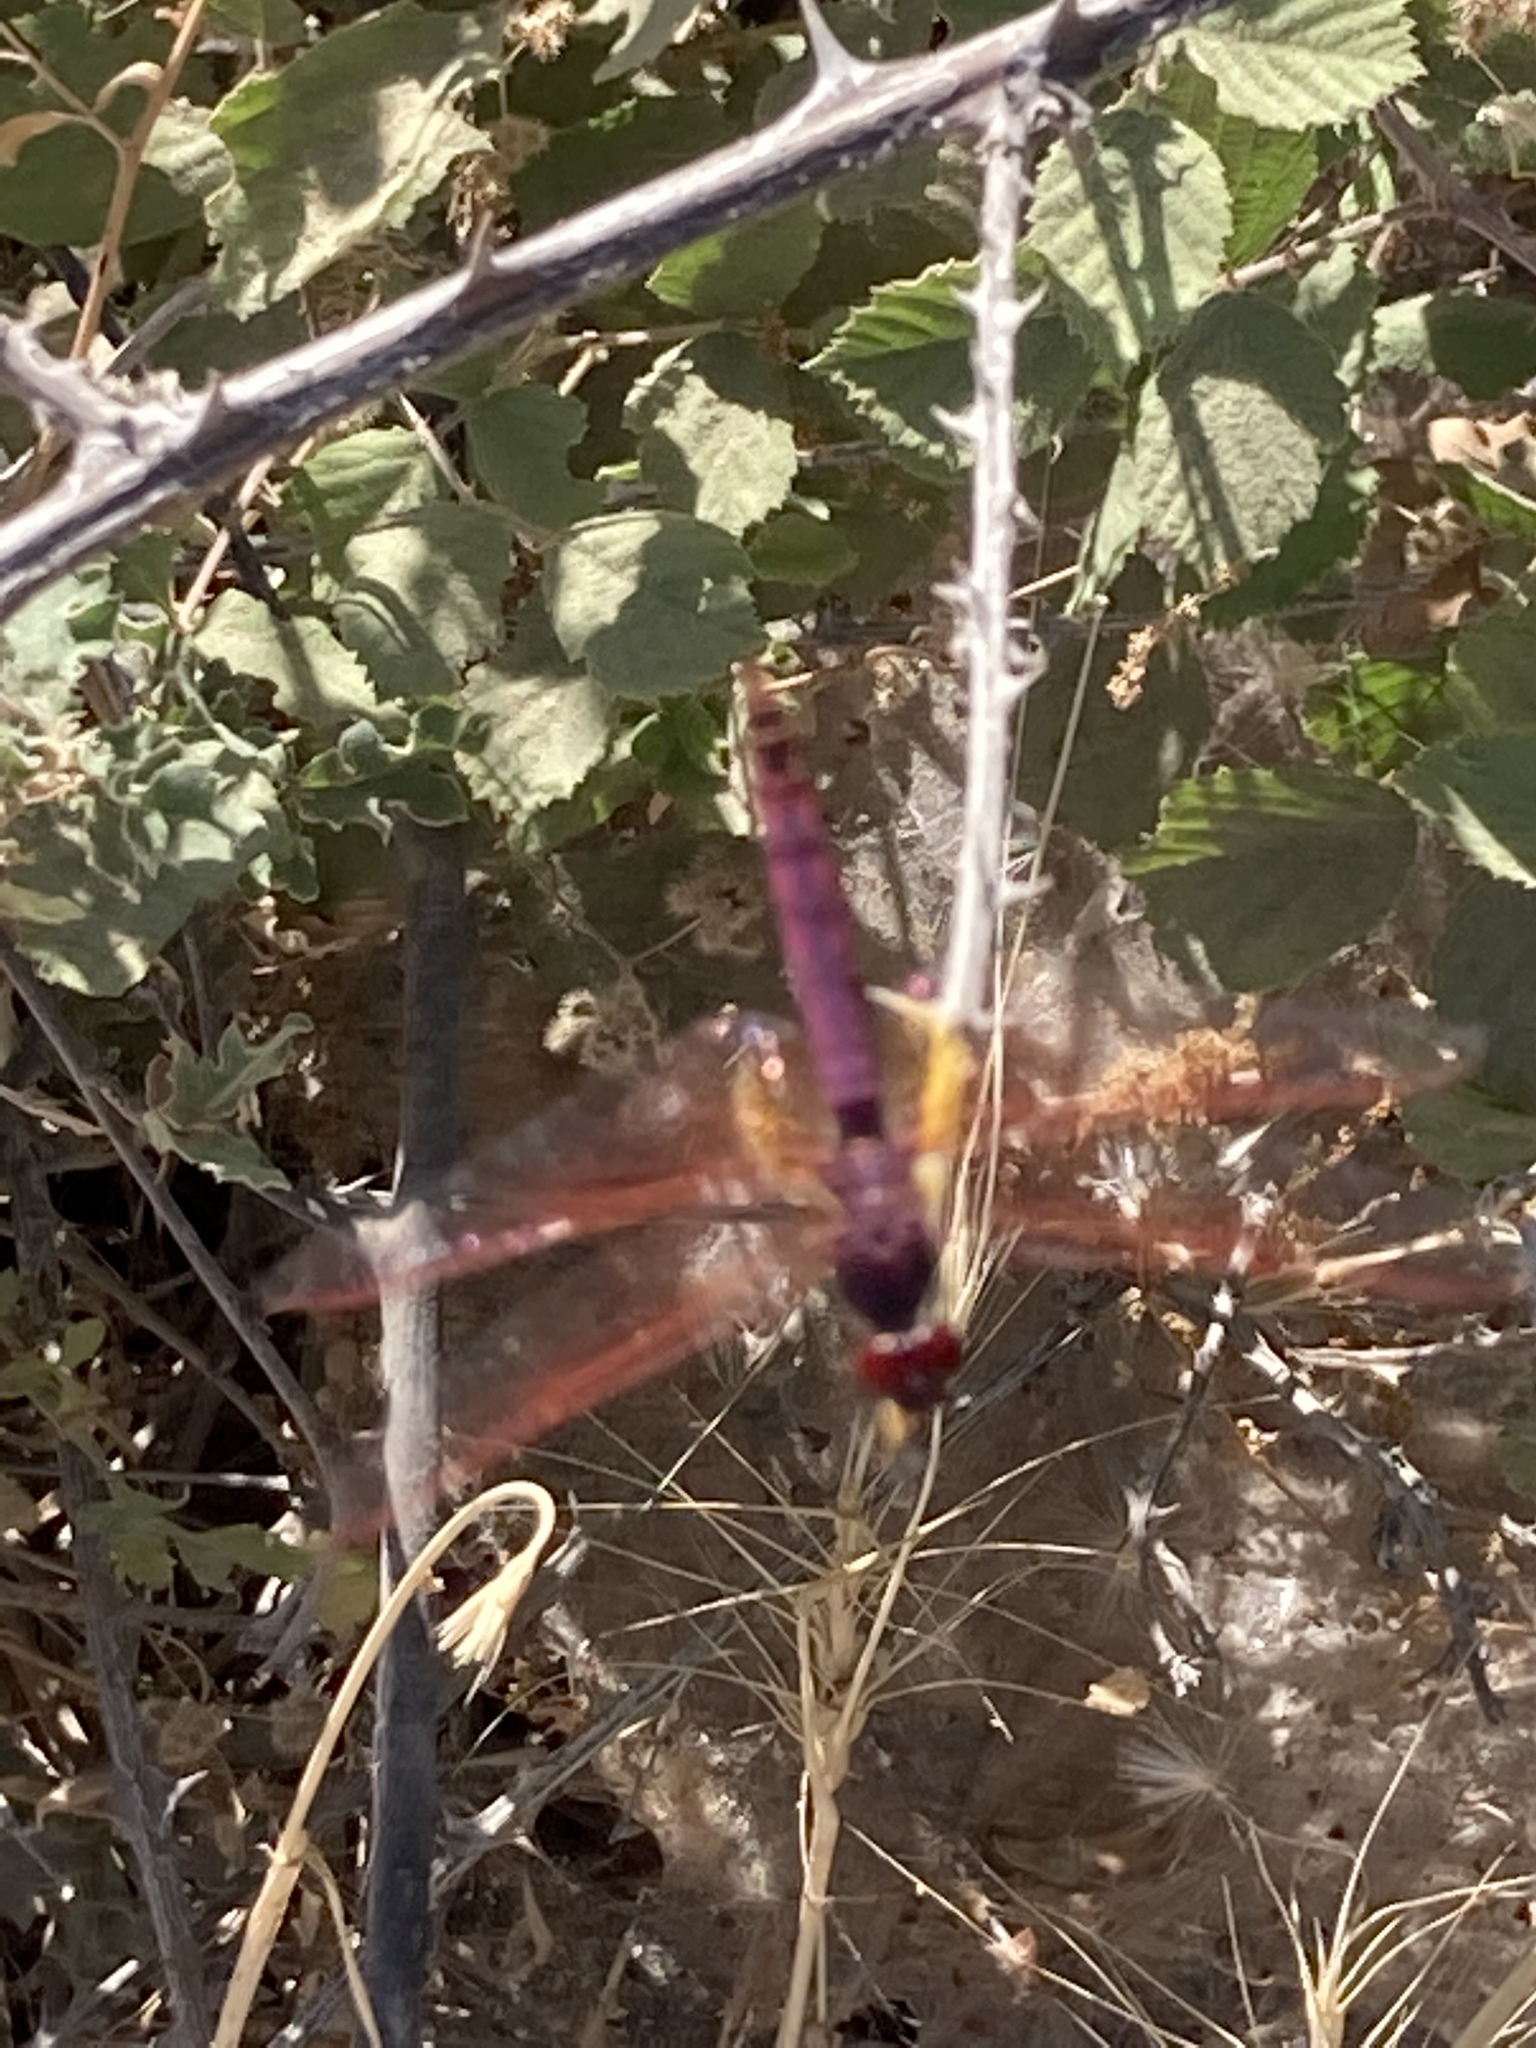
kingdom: Animalia
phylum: Arthropoda
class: Insecta
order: Odonata
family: Libellulidae
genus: Trithemis
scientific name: Trithemis annulata
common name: Violet dropwing
